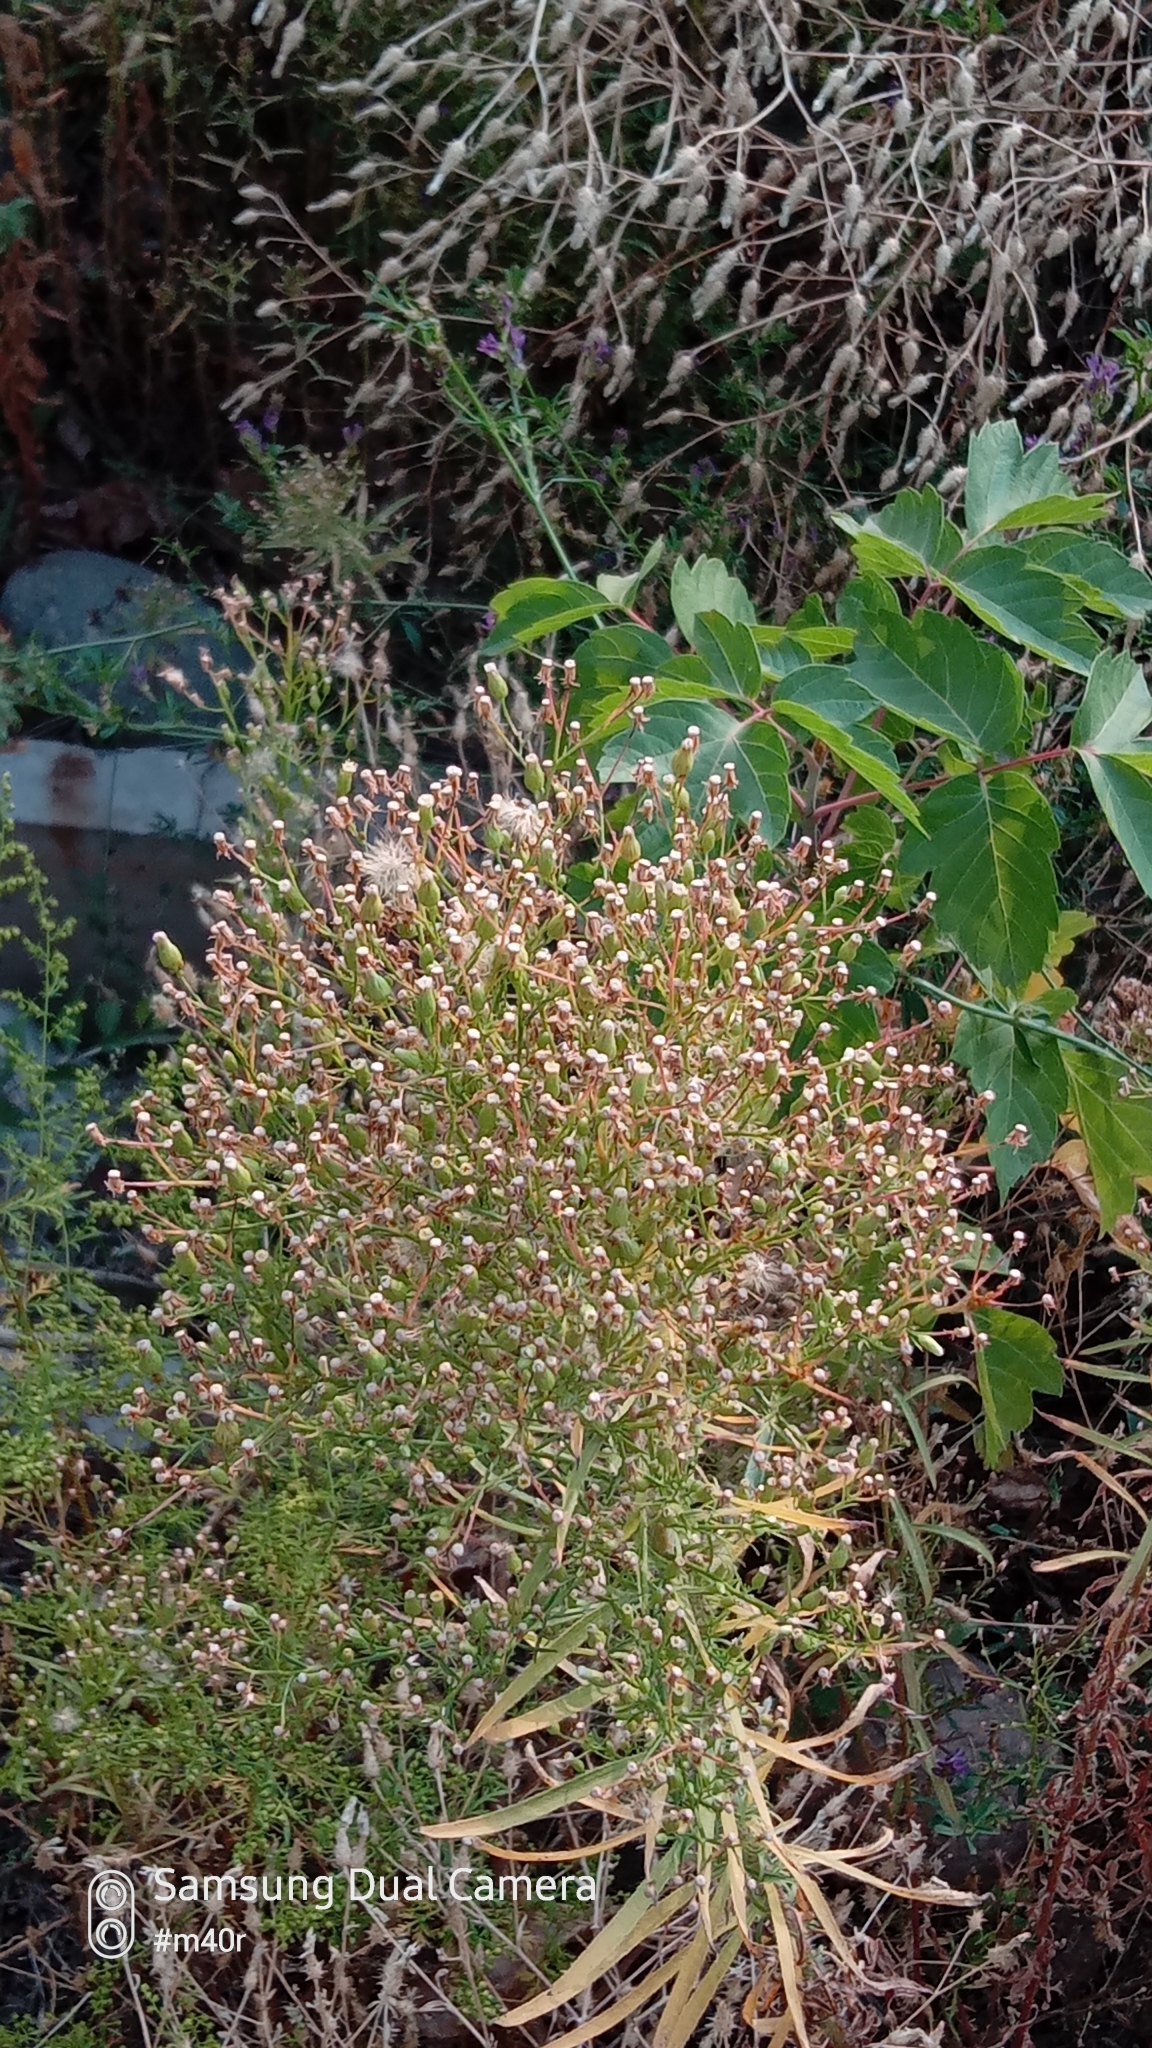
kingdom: Plantae
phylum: Tracheophyta
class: Magnoliopsida
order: Asterales
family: Asteraceae
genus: Erigeron
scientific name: Erigeron canadensis
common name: Canadian fleabane
